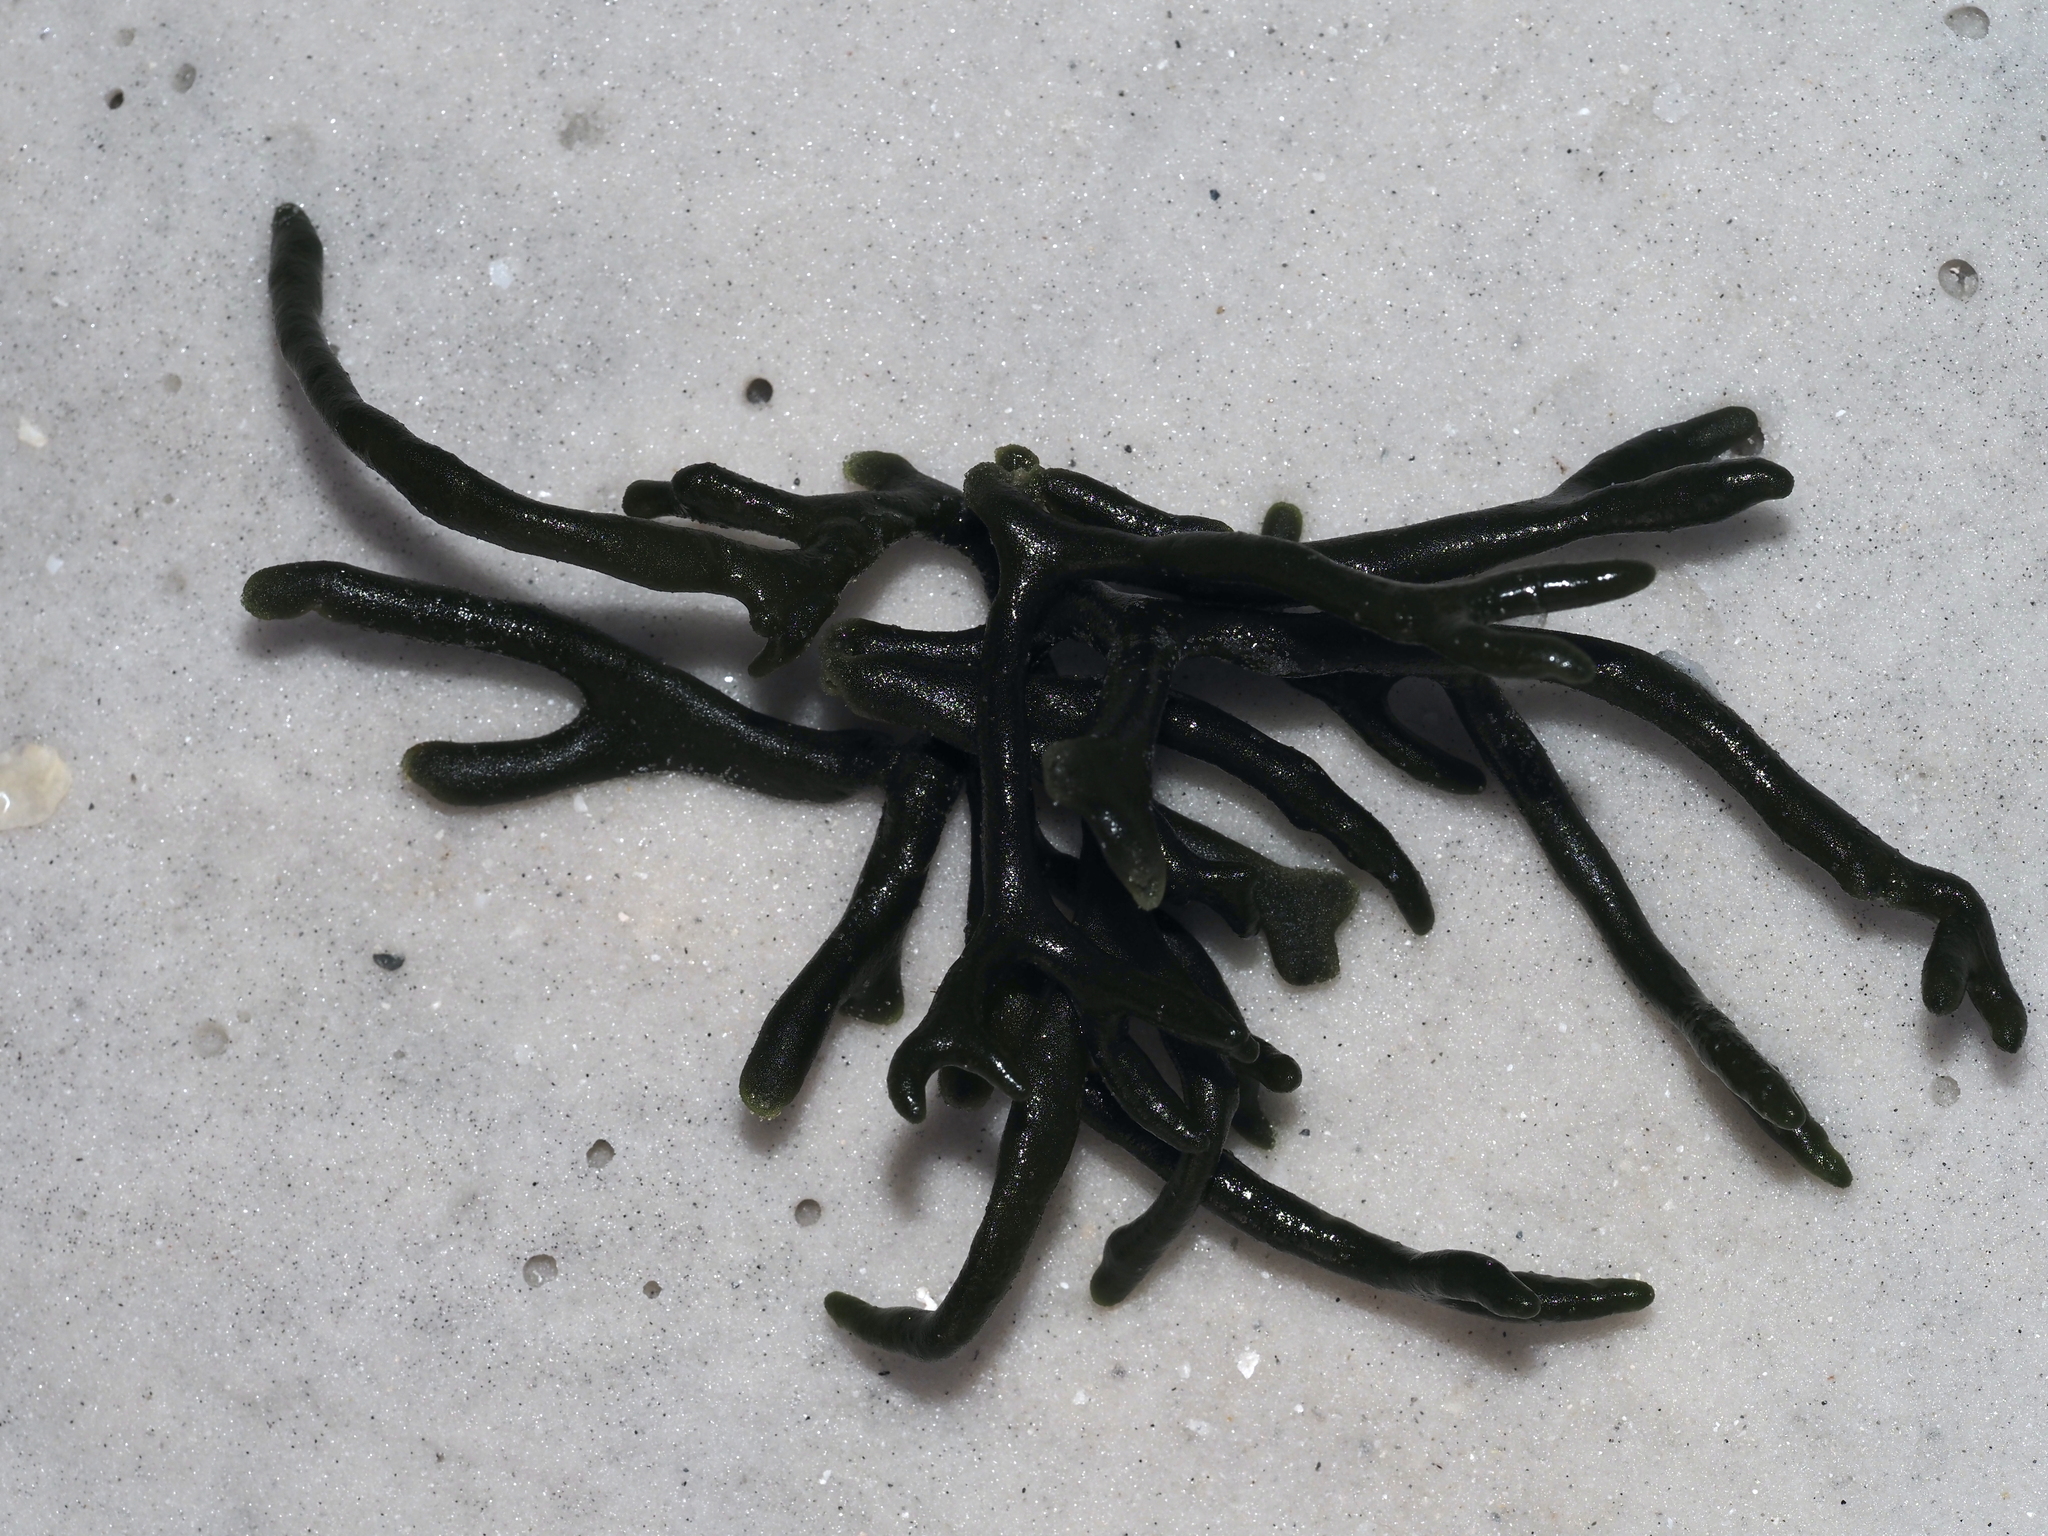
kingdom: Plantae
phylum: Chlorophyta
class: Ulvophyceae
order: Bryopsidales
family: Codiaceae
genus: Codium
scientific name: Codium fragile
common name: Dead man's fingers
